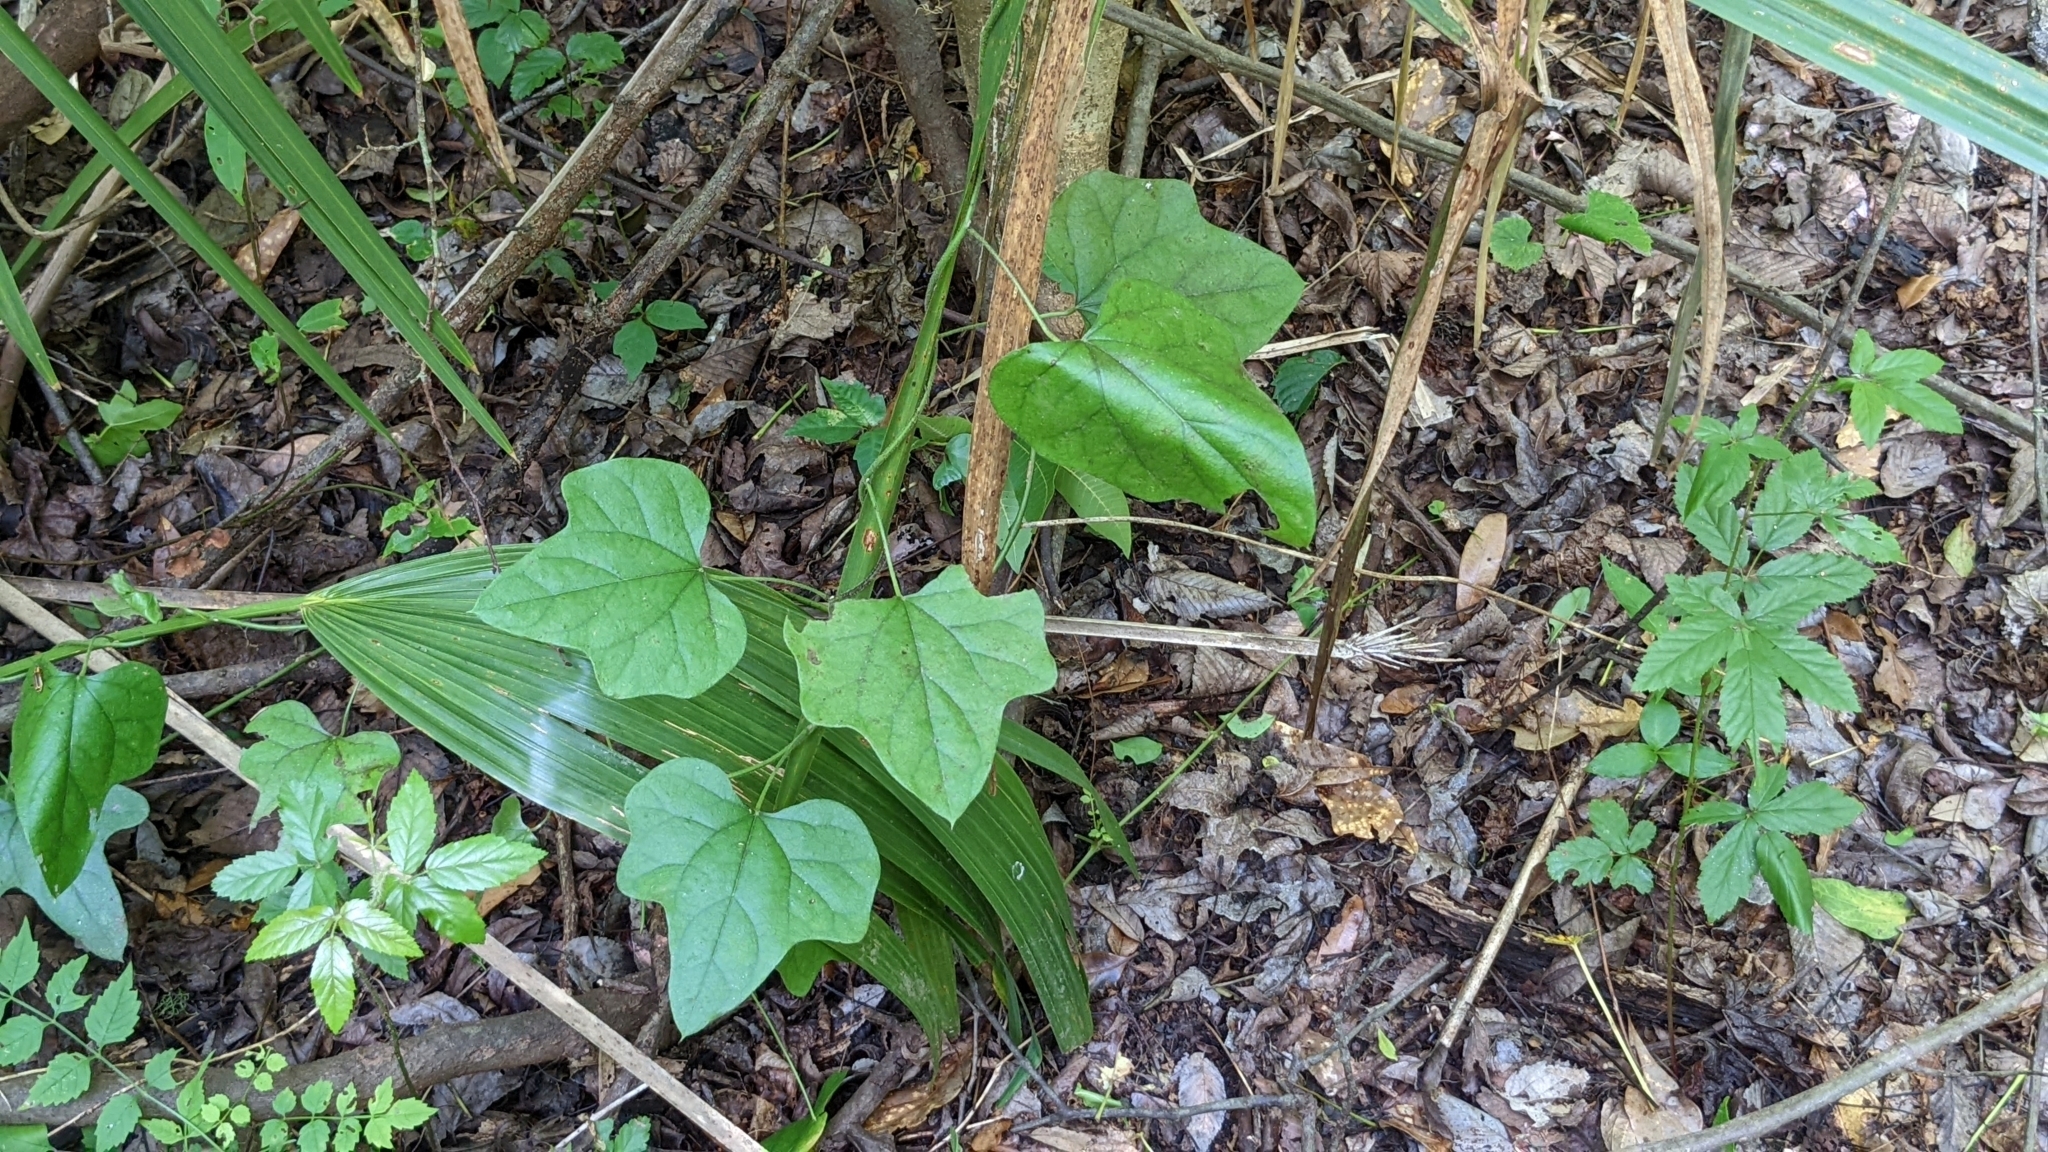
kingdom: Plantae
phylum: Tracheophyta
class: Magnoliopsida
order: Ranunculales
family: Menispermaceae
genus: Cocculus
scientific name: Cocculus carolinus
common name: Carolina moonseed
